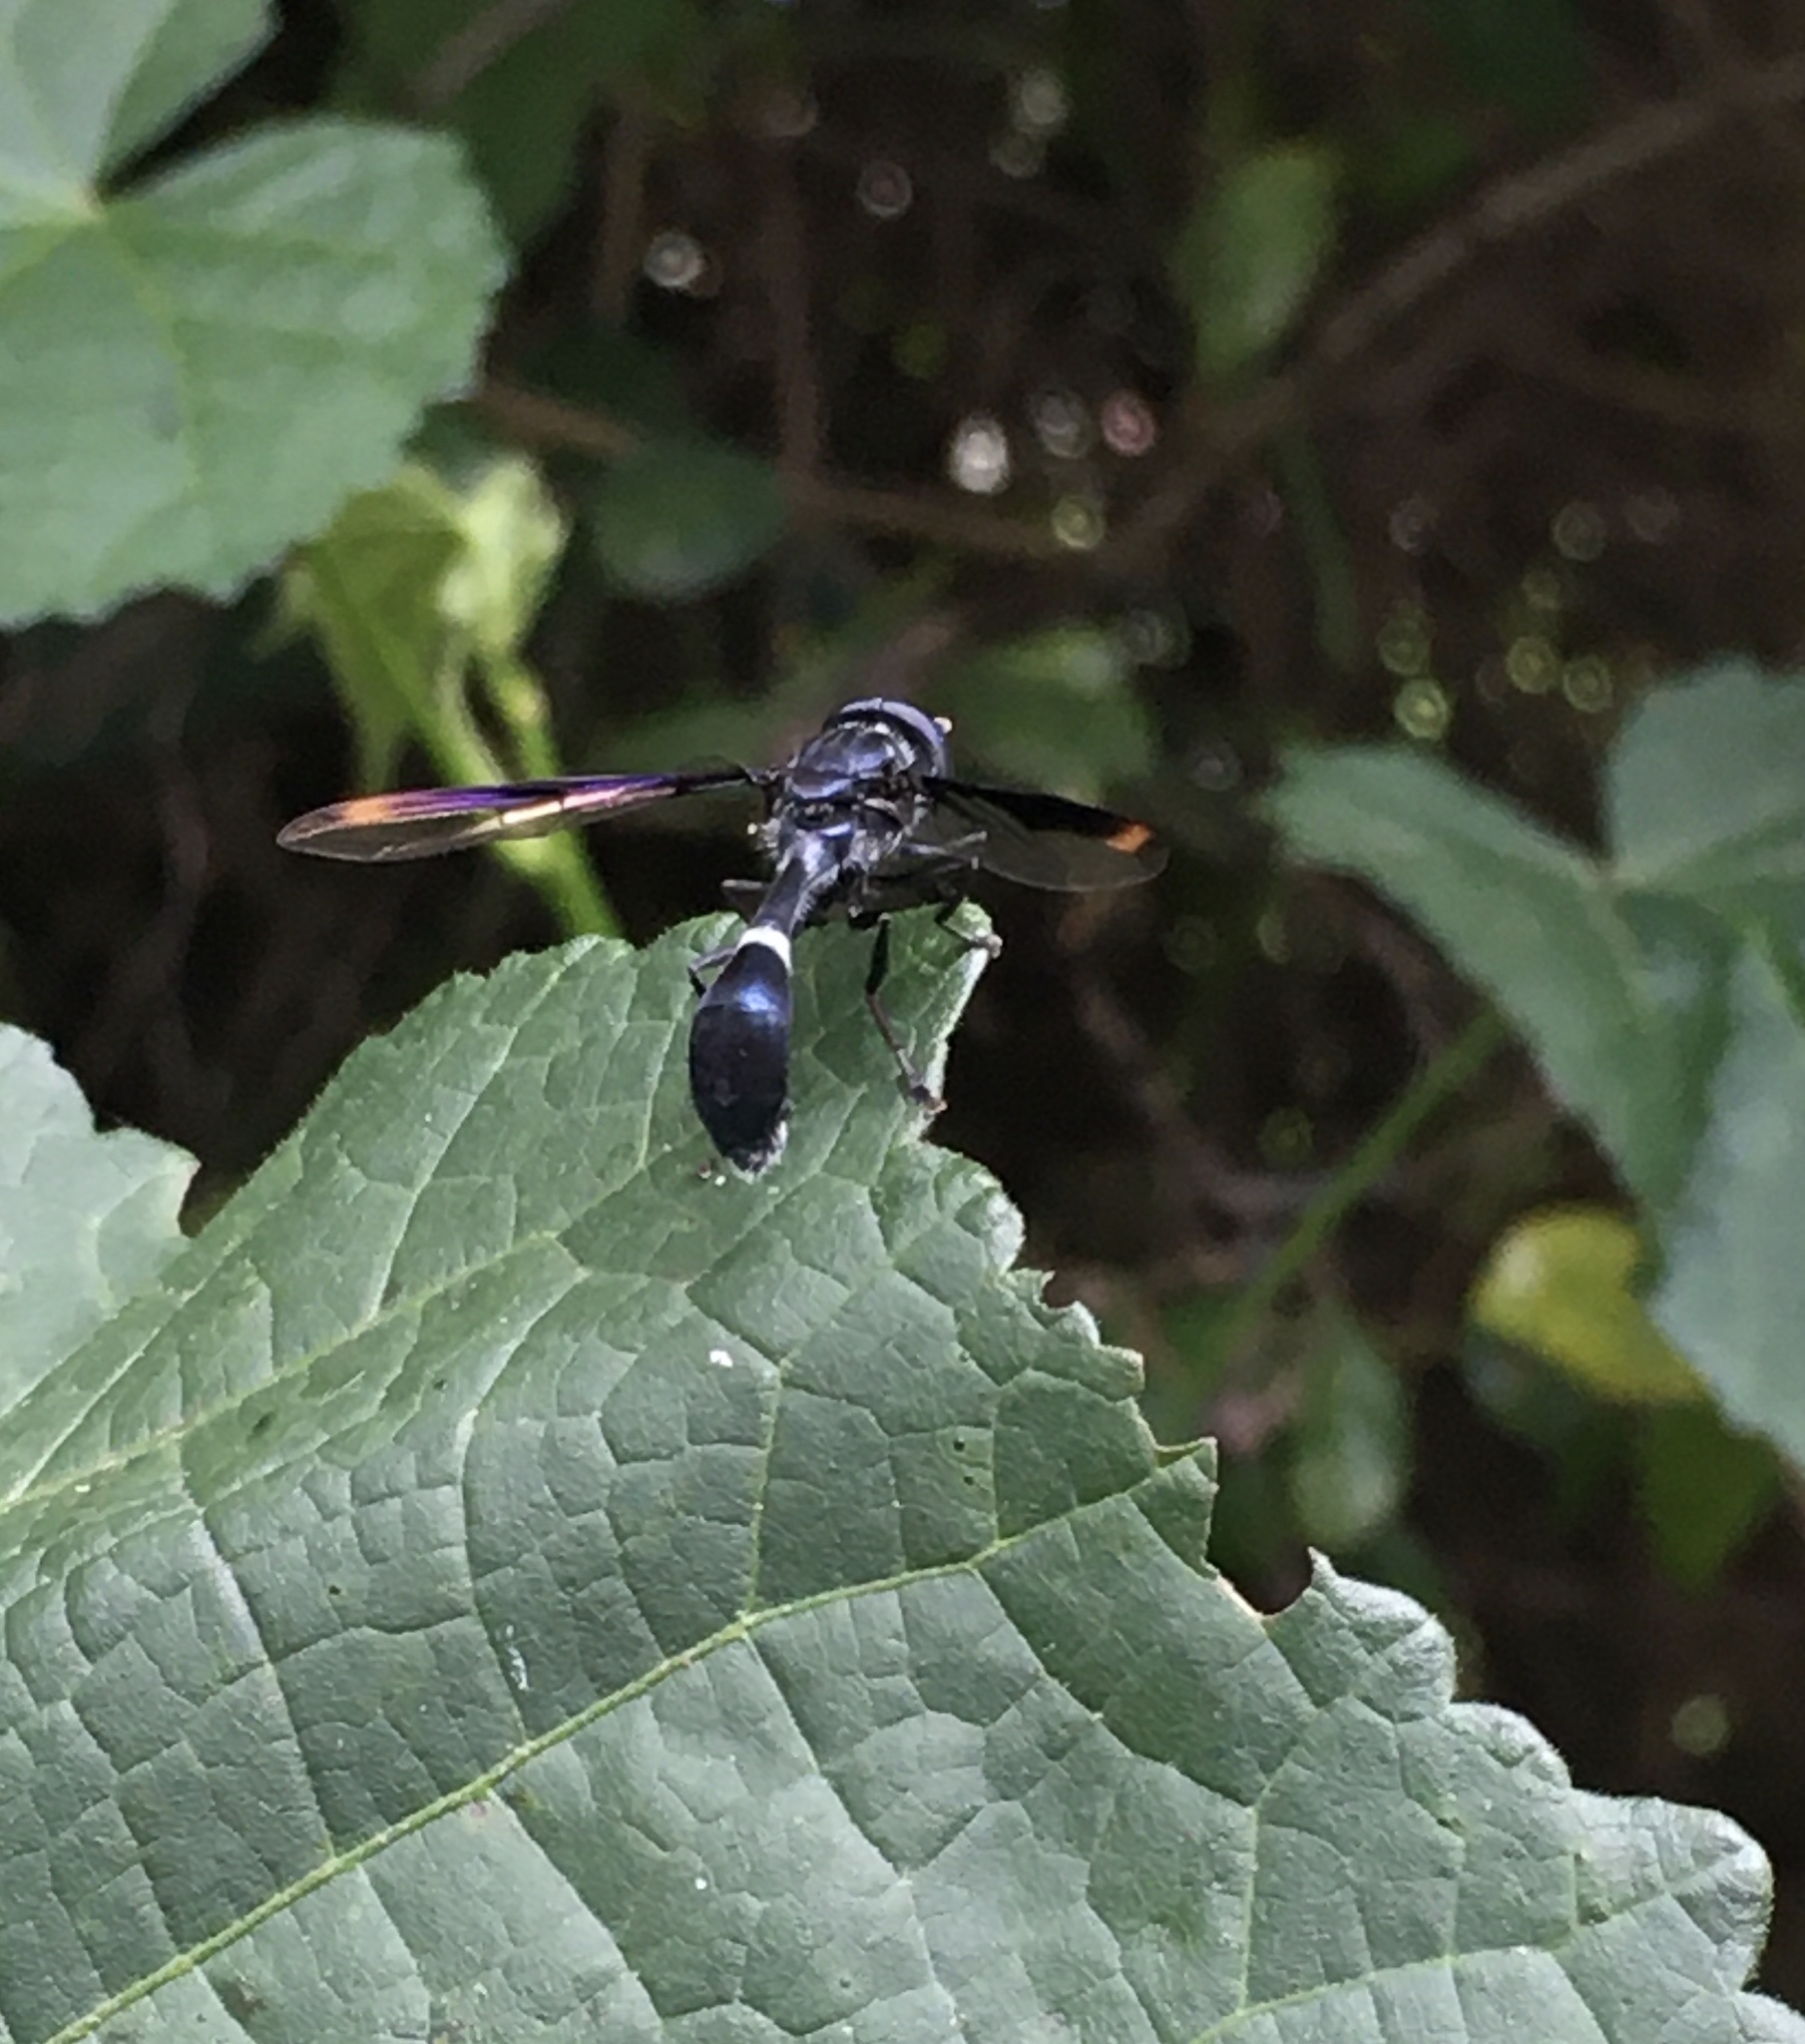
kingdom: Animalia
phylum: Arthropoda
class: Insecta
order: Diptera
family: Syrphidae
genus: Mimocalla
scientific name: Mimocalla giganteus
